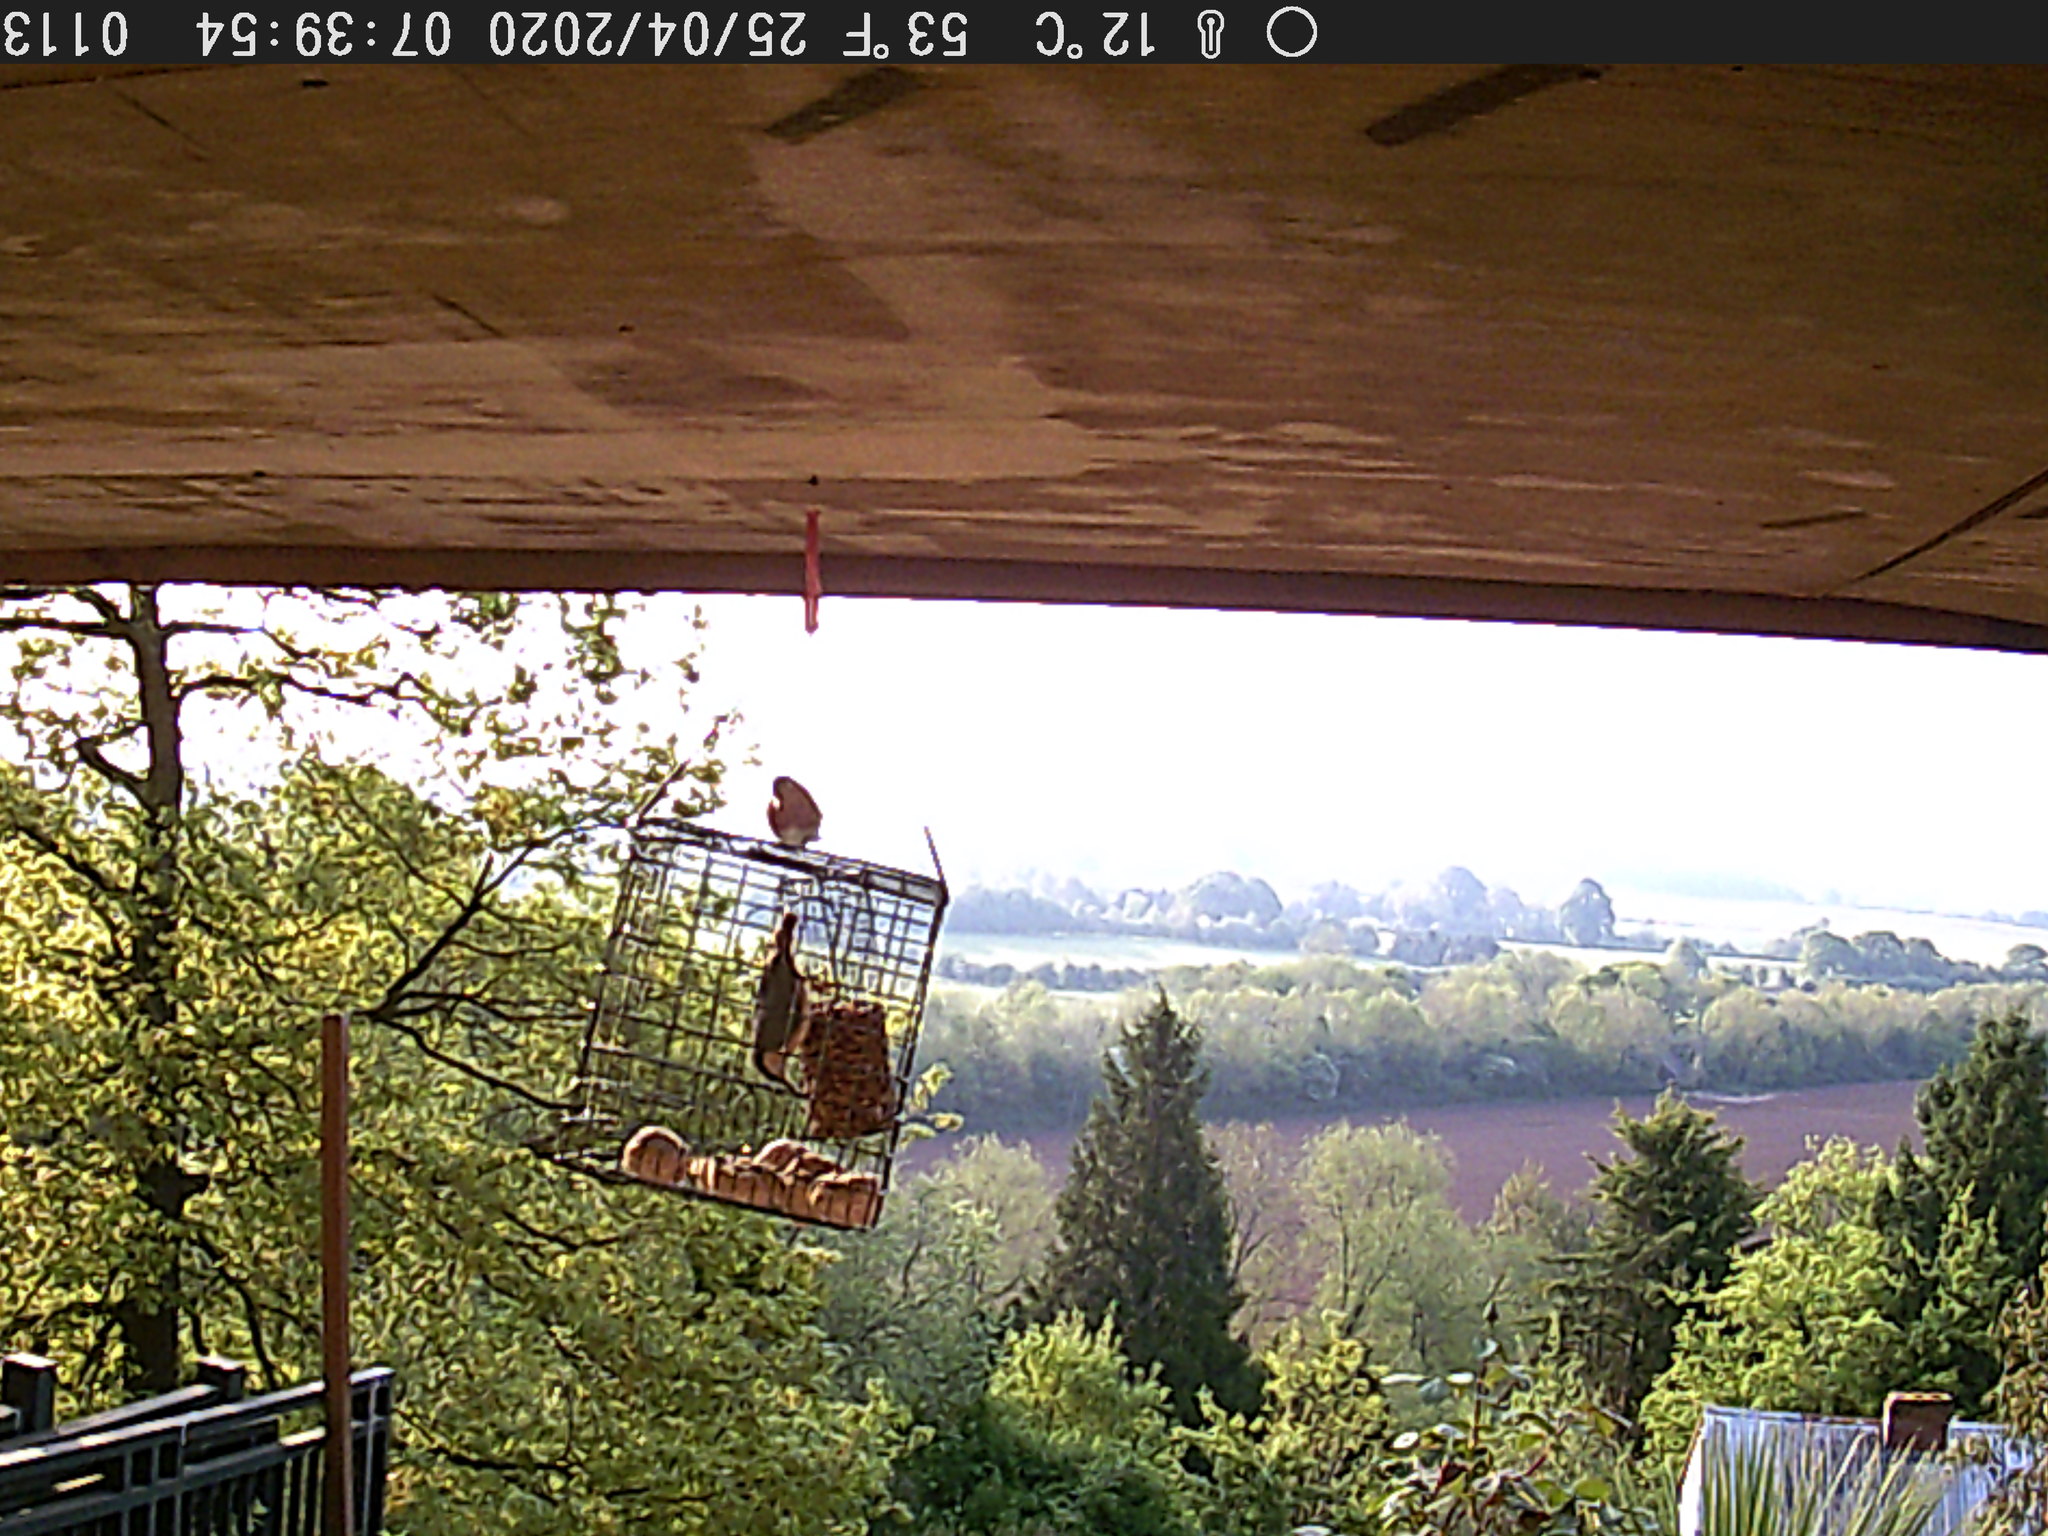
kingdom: Animalia
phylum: Chordata
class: Aves
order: Passeriformes
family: Sittidae
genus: Sitta
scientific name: Sitta europaea
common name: Eurasian nuthatch
